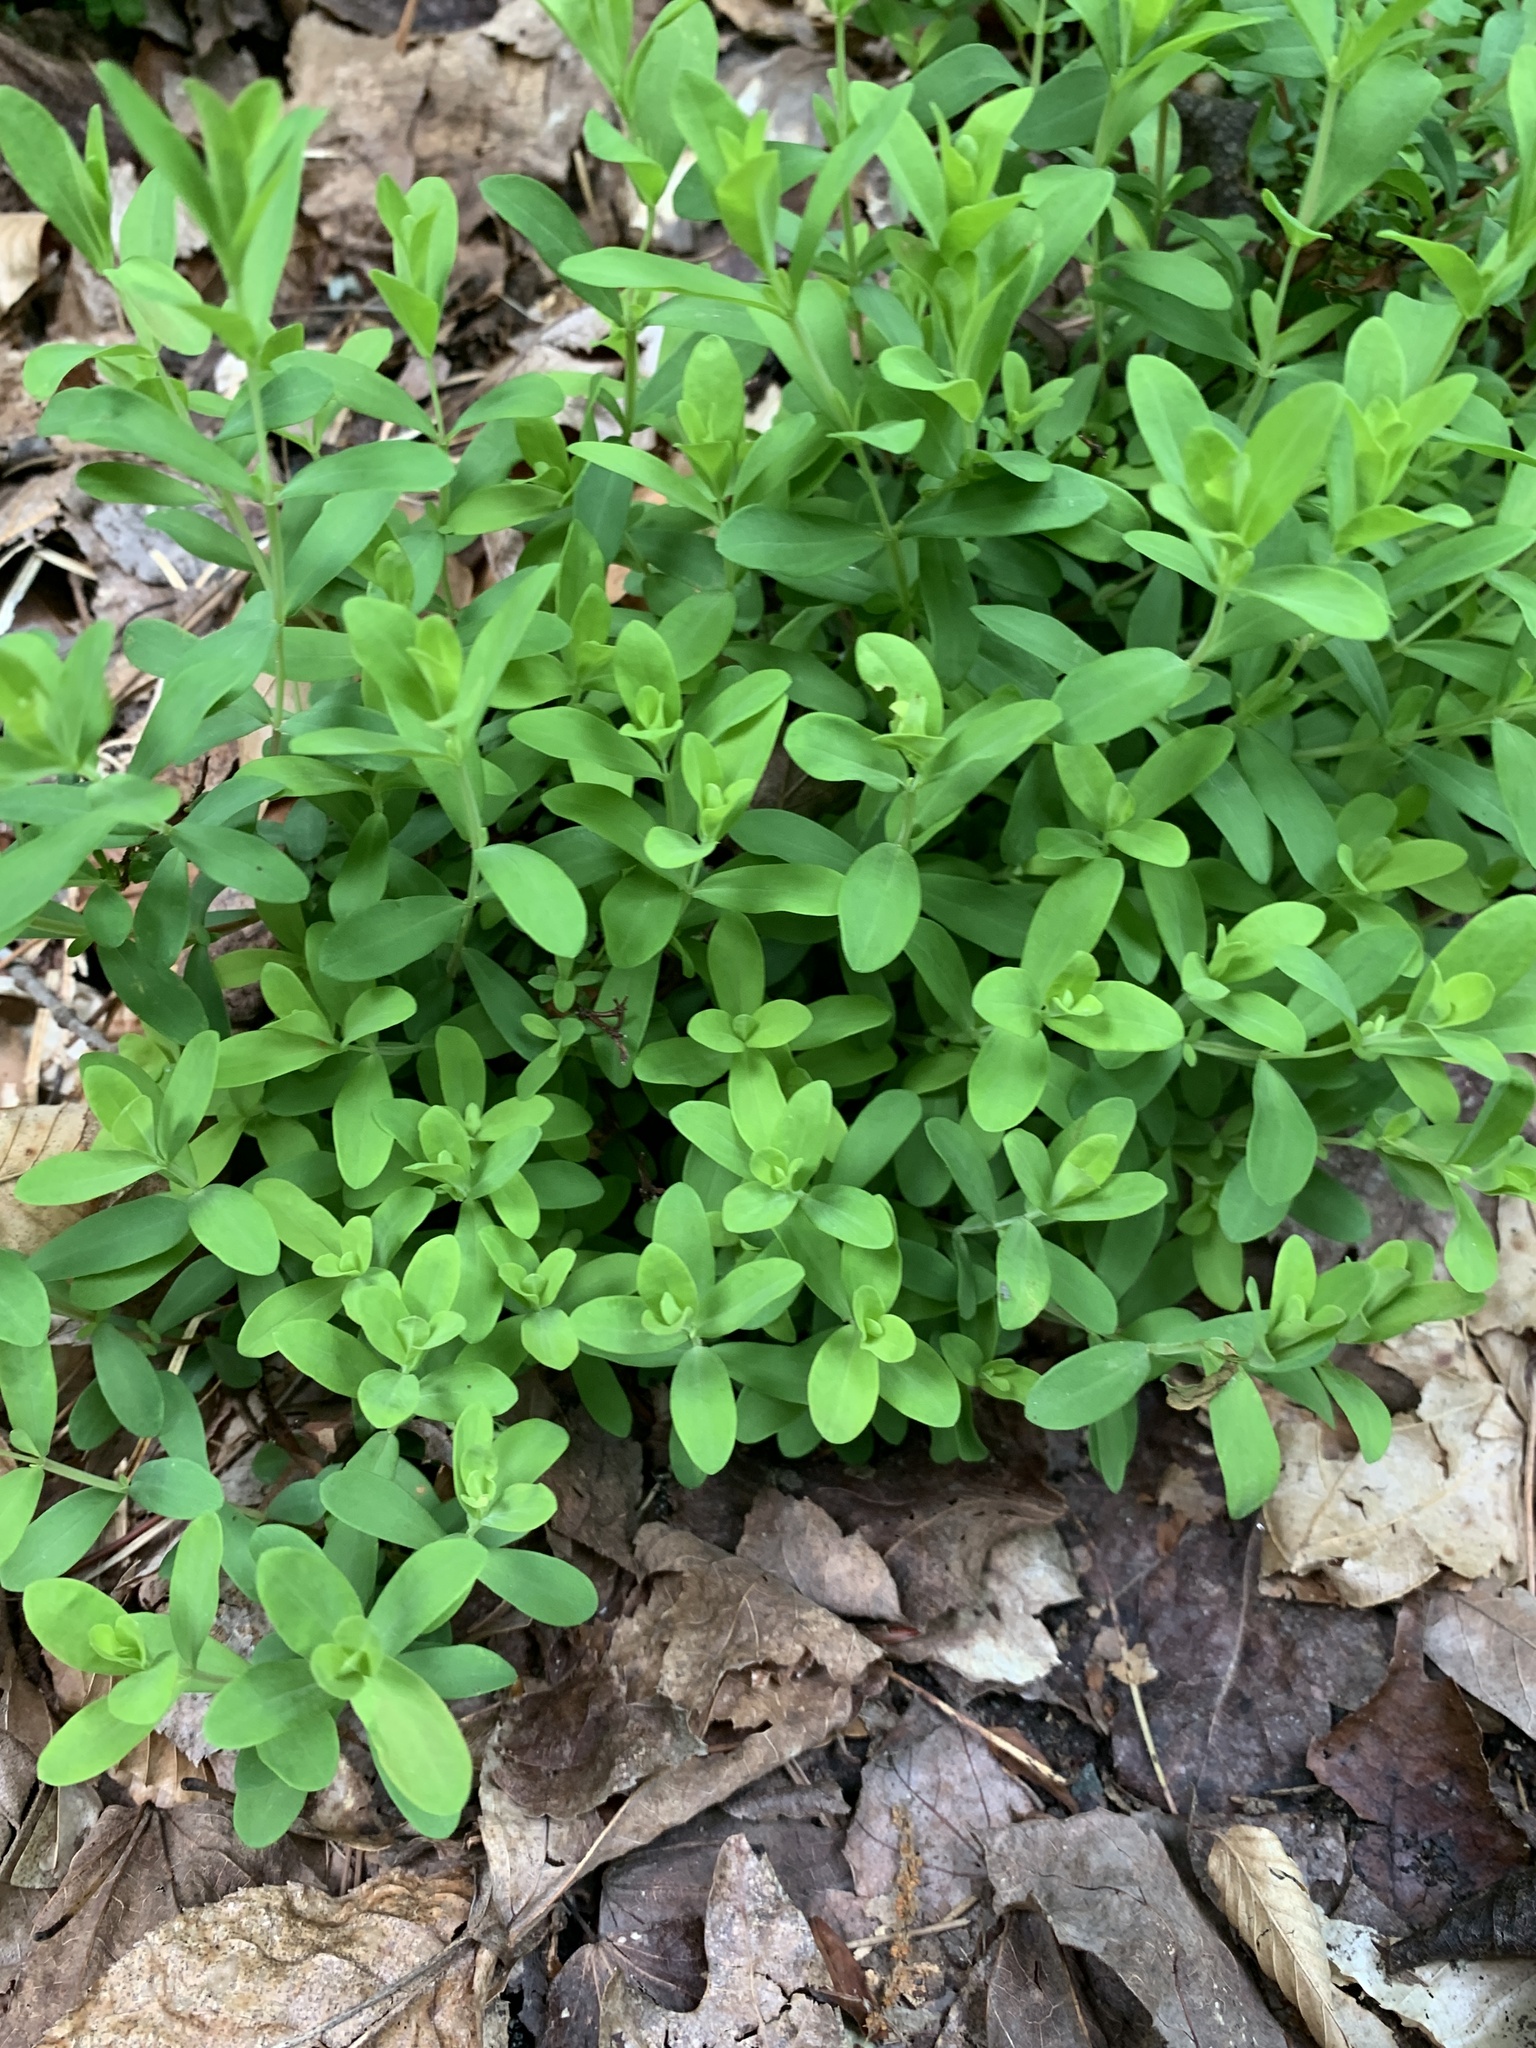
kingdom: Plantae
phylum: Tracheophyta
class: Magnoliopsida
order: Malpighiales
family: Hypericaceae
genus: Hypericum
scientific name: Hypericum hypericoides
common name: St. andrew's cross
